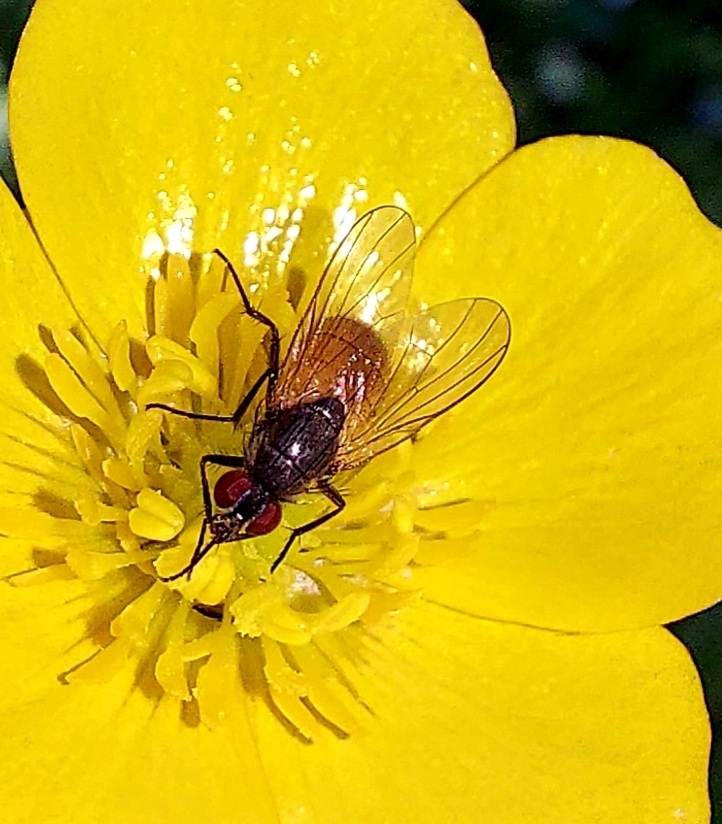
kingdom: Animalia
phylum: Arthropoda
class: Insecta
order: Diptera
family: Muscidae
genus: Thricops
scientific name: Thricops semicinereus
